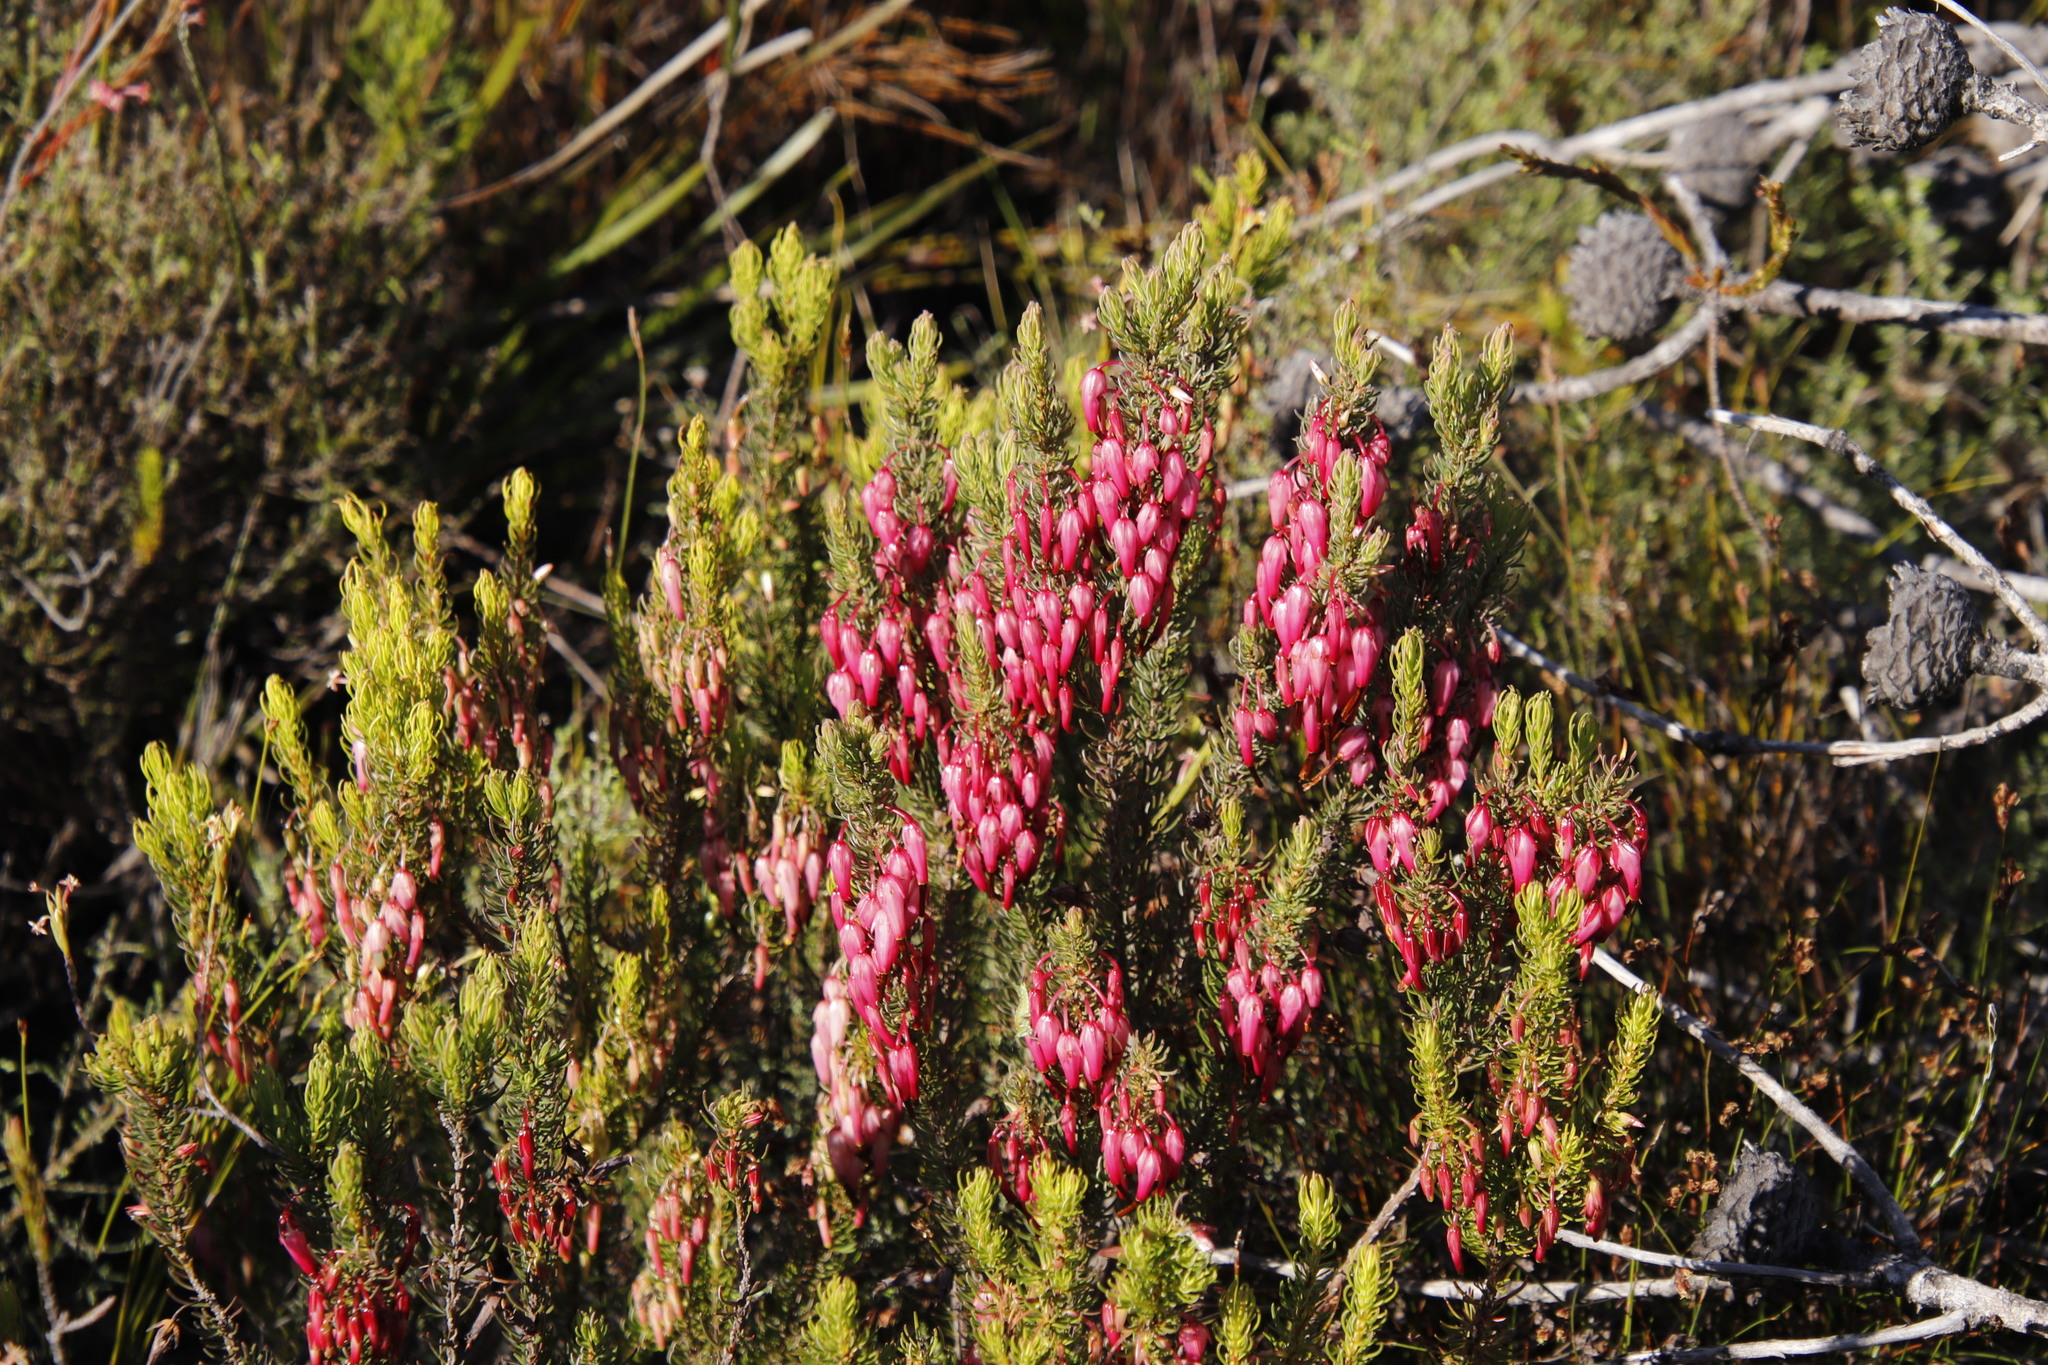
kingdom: Plantae
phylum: Tracheophyta
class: Magnoliopsida
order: Ericales
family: Ericaceae
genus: Erica
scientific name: Erica plukenetii
